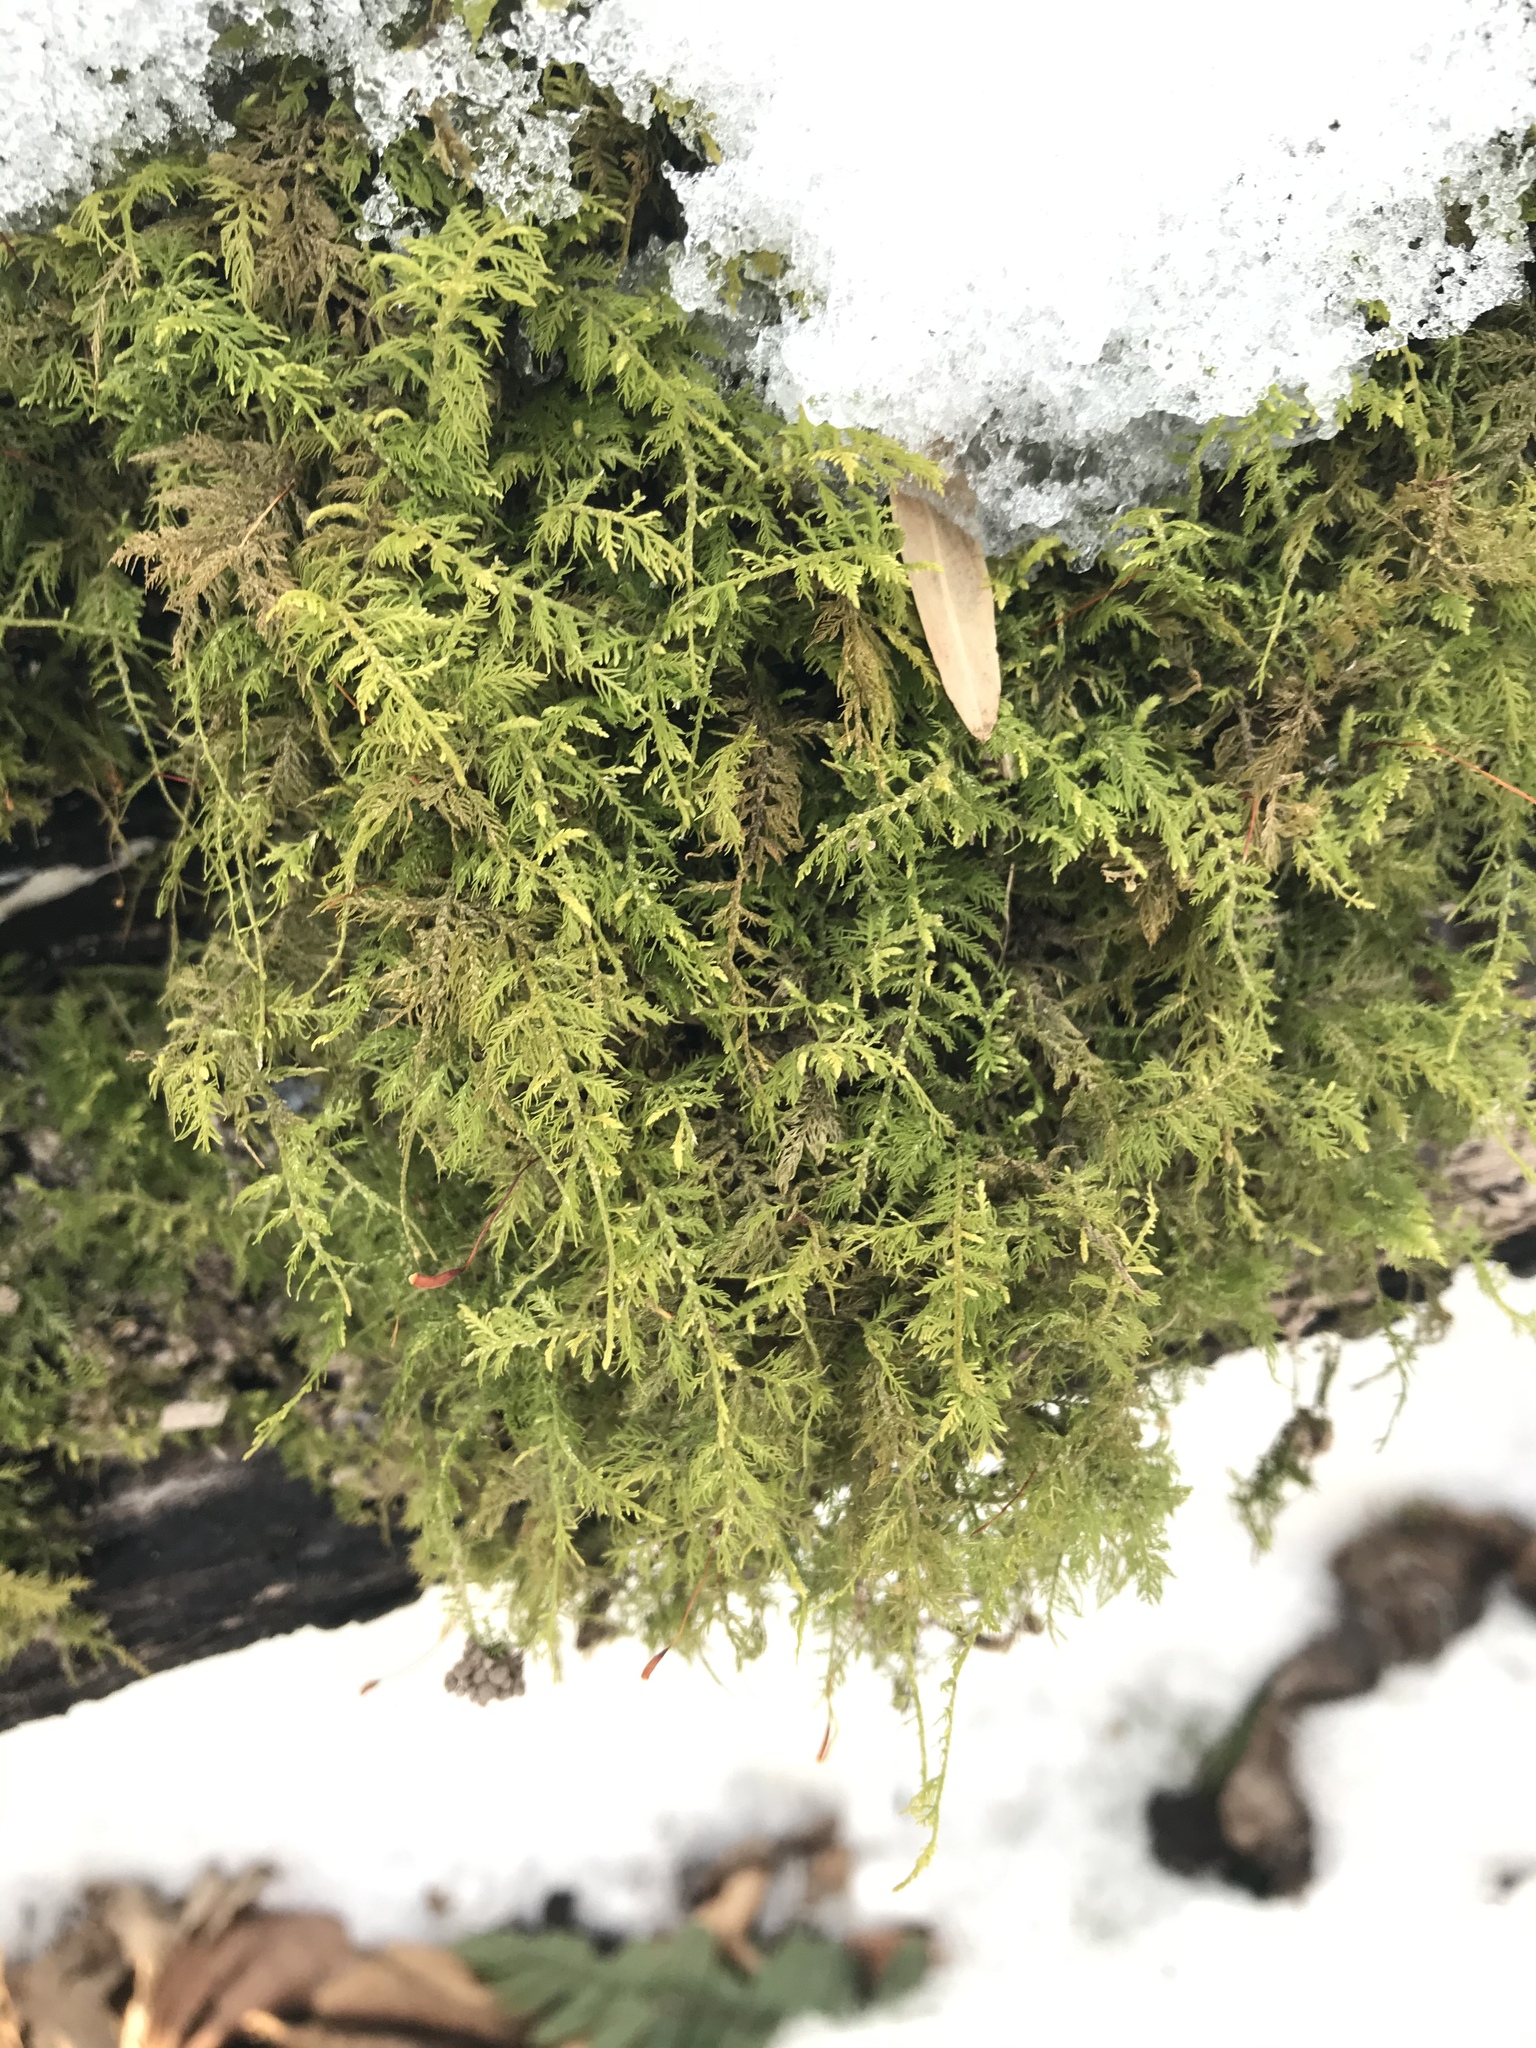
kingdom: Plantae
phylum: Bryophyta
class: Bryopsida
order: Hypnales
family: Thuidiaceae
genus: Thuidium
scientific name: Thuidium delicatulum
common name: Delicate fern moss
